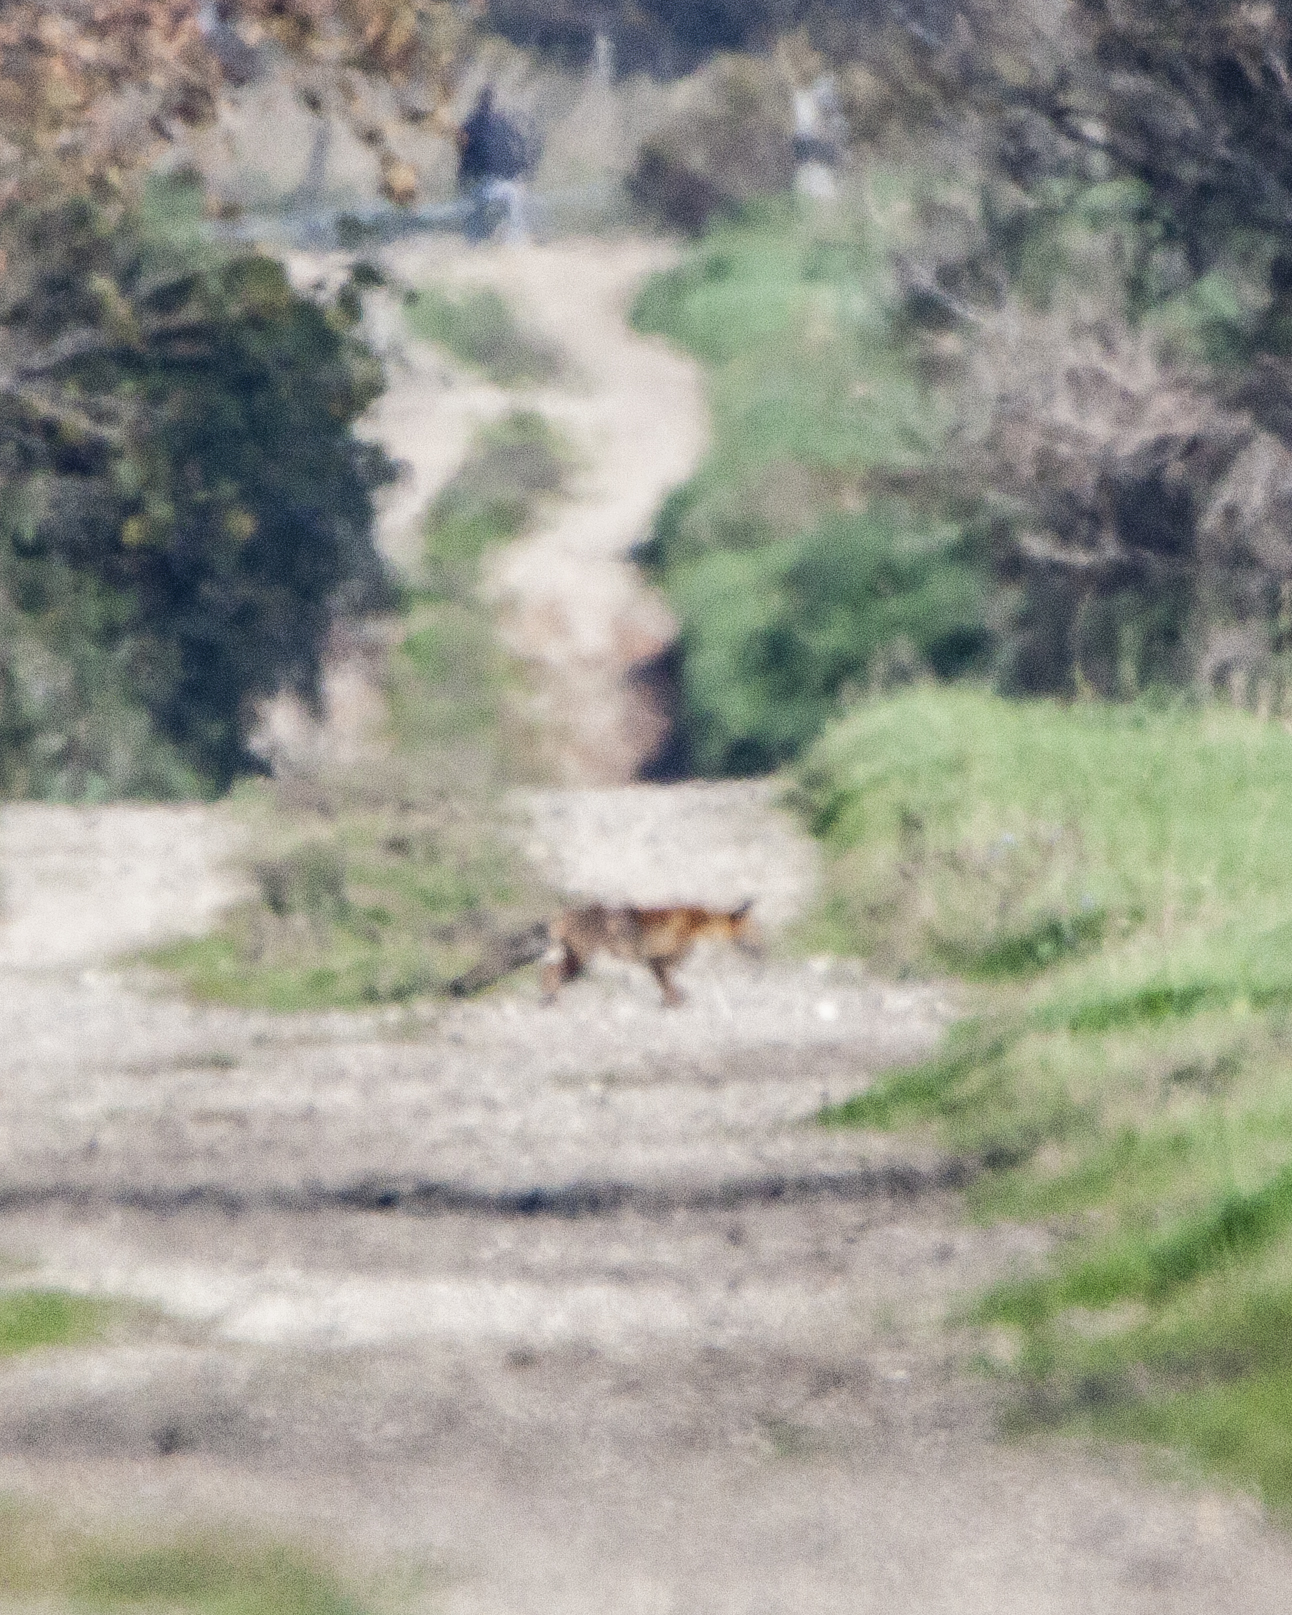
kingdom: Animalia
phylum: Chordata
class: Mammalia
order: Carnivora
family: Canidae
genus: Vulpes
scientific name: Vulpes vulpes
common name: Red fox
